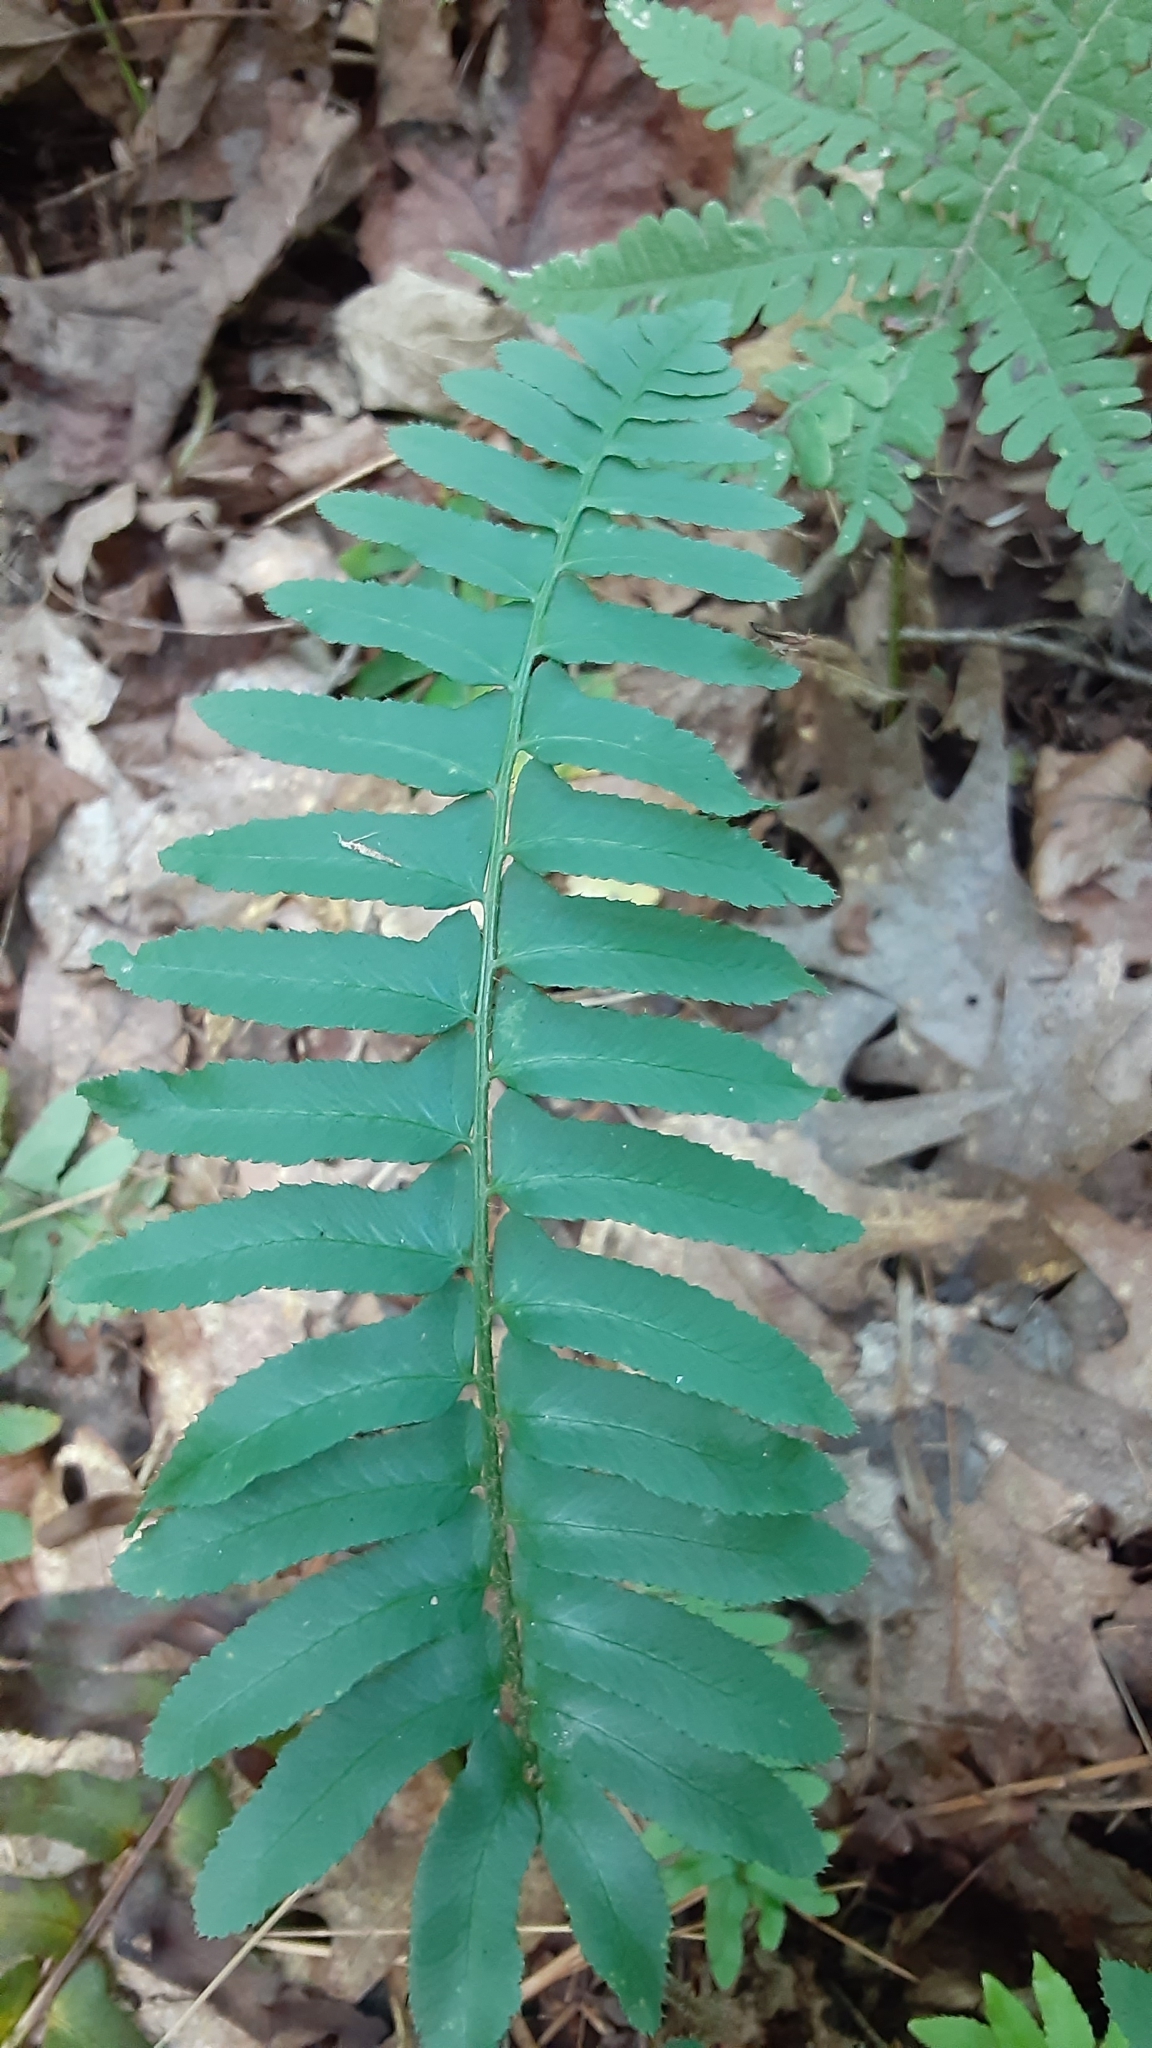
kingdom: Plantae
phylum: Tracheophyta
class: Polypodiopsida
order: Polypodiales
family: Dryopteridaceae
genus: Polystichum
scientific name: Polystichum acrostichoides
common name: Christmas fern
